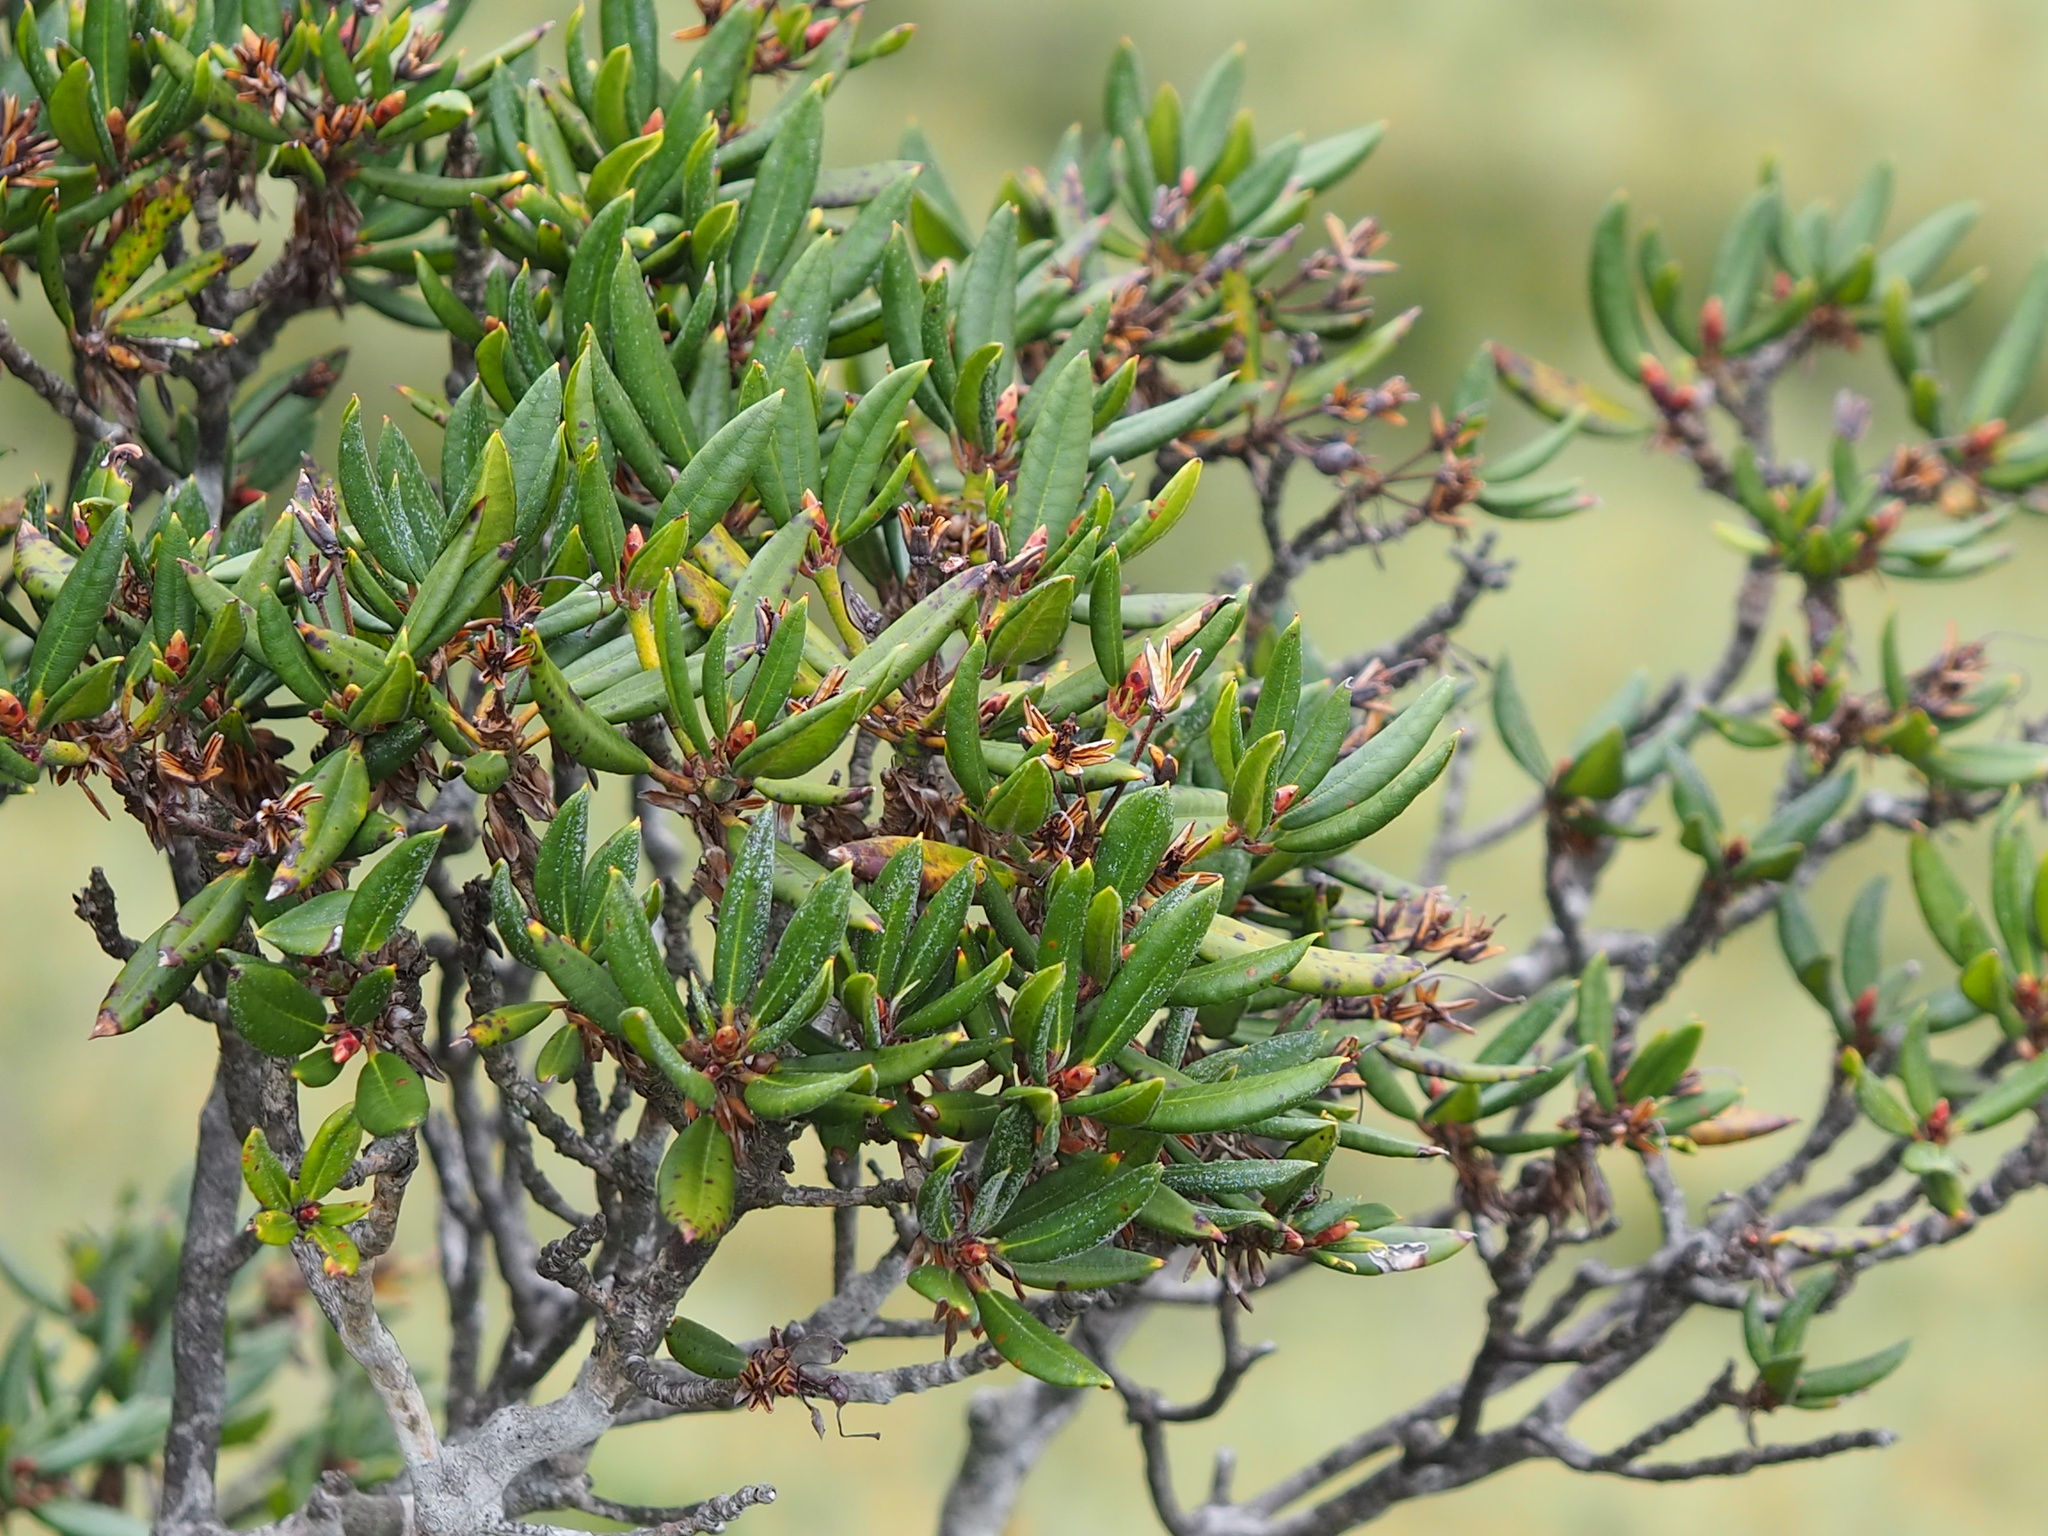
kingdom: Plantae
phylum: Tracheophyta
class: Magnoliopsida
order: Ericales
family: Ericaceae
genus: Rhododendron
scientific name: Rhododendron pseudochrysanthum
